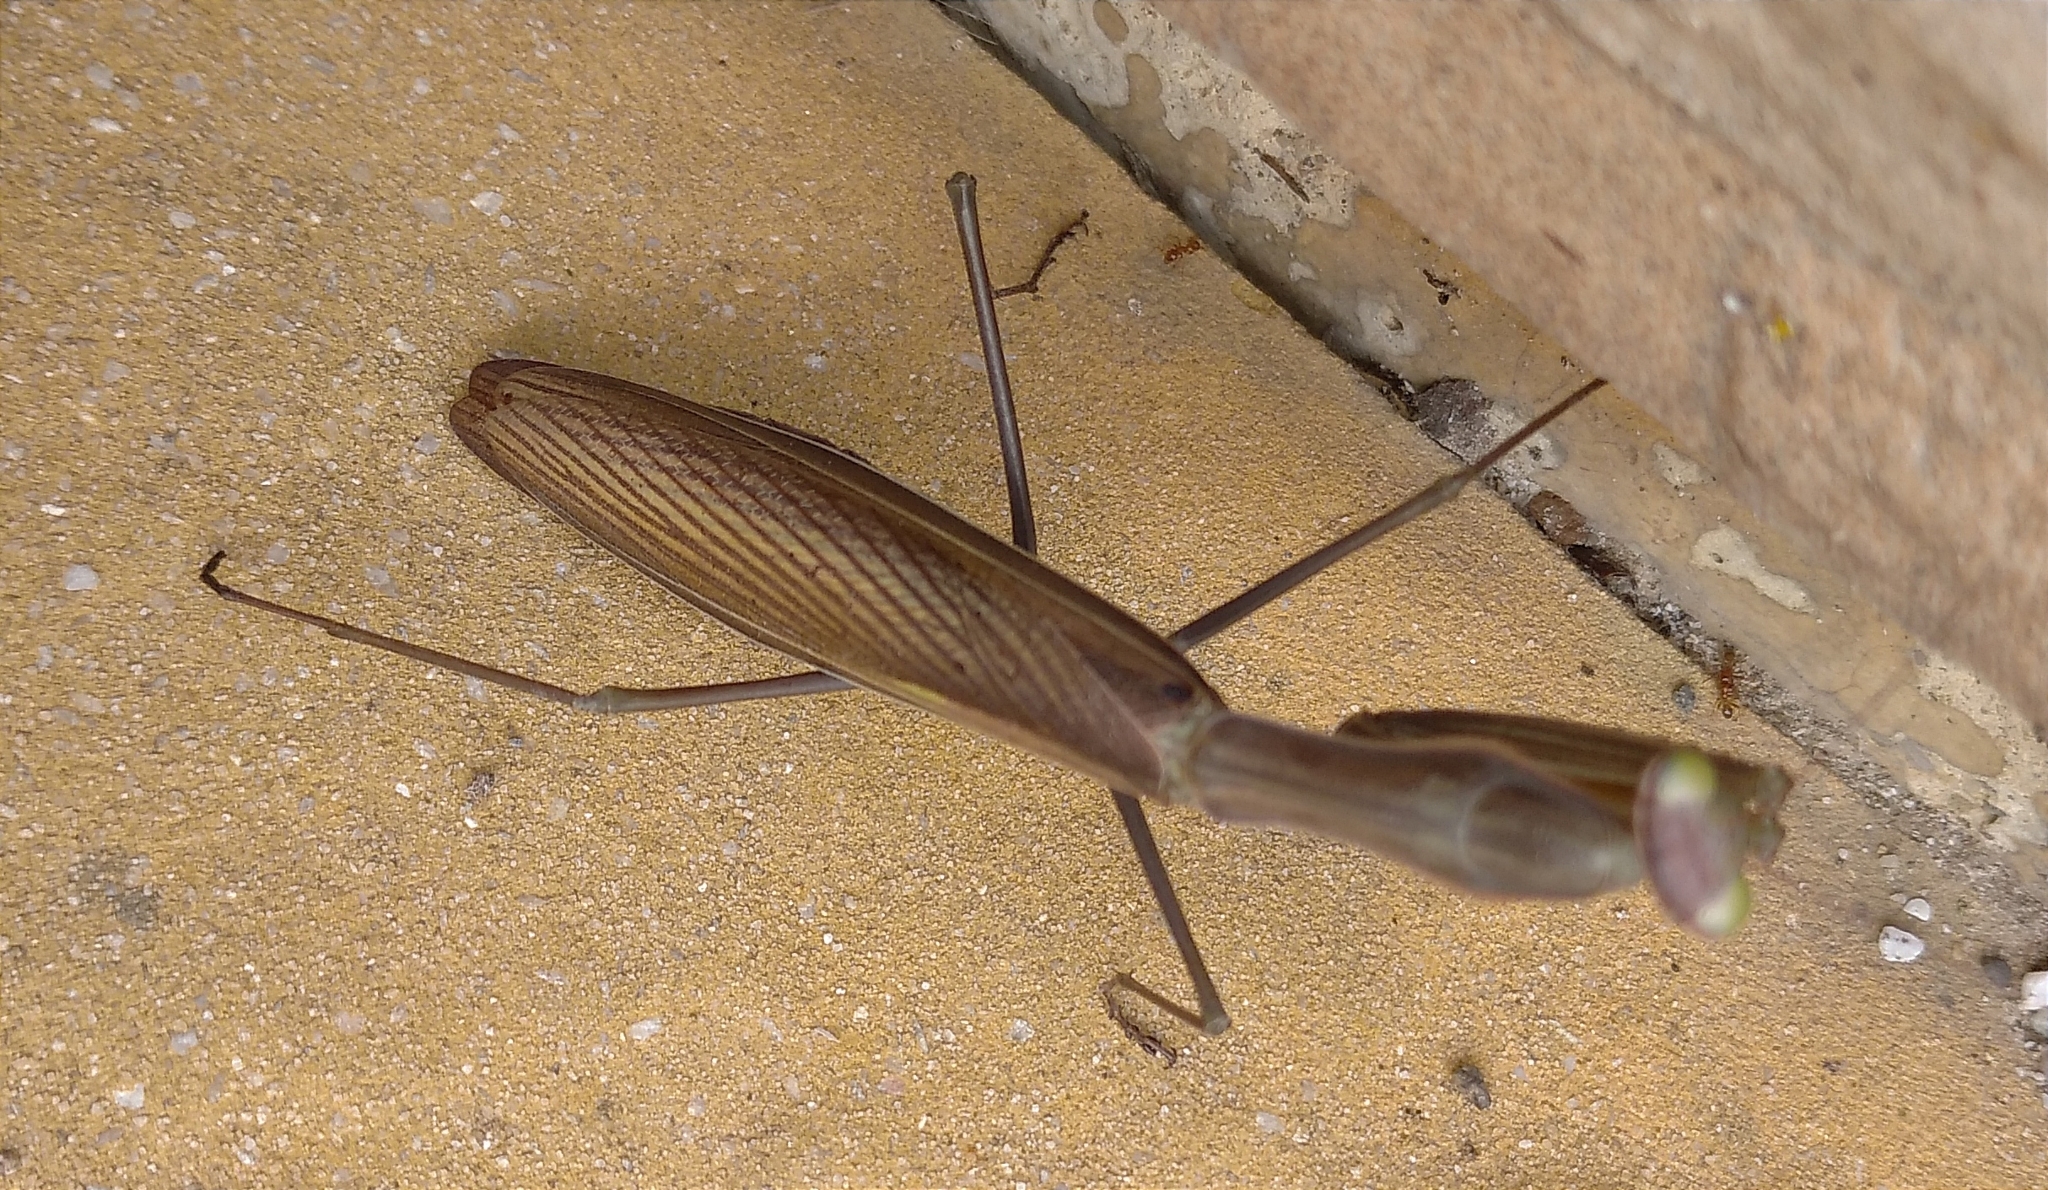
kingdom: Animalia
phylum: Arthropoda
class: Insecta
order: Mantodea
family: Mantidae
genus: Mantis
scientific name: Mantis religiosa
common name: Praying mantis
